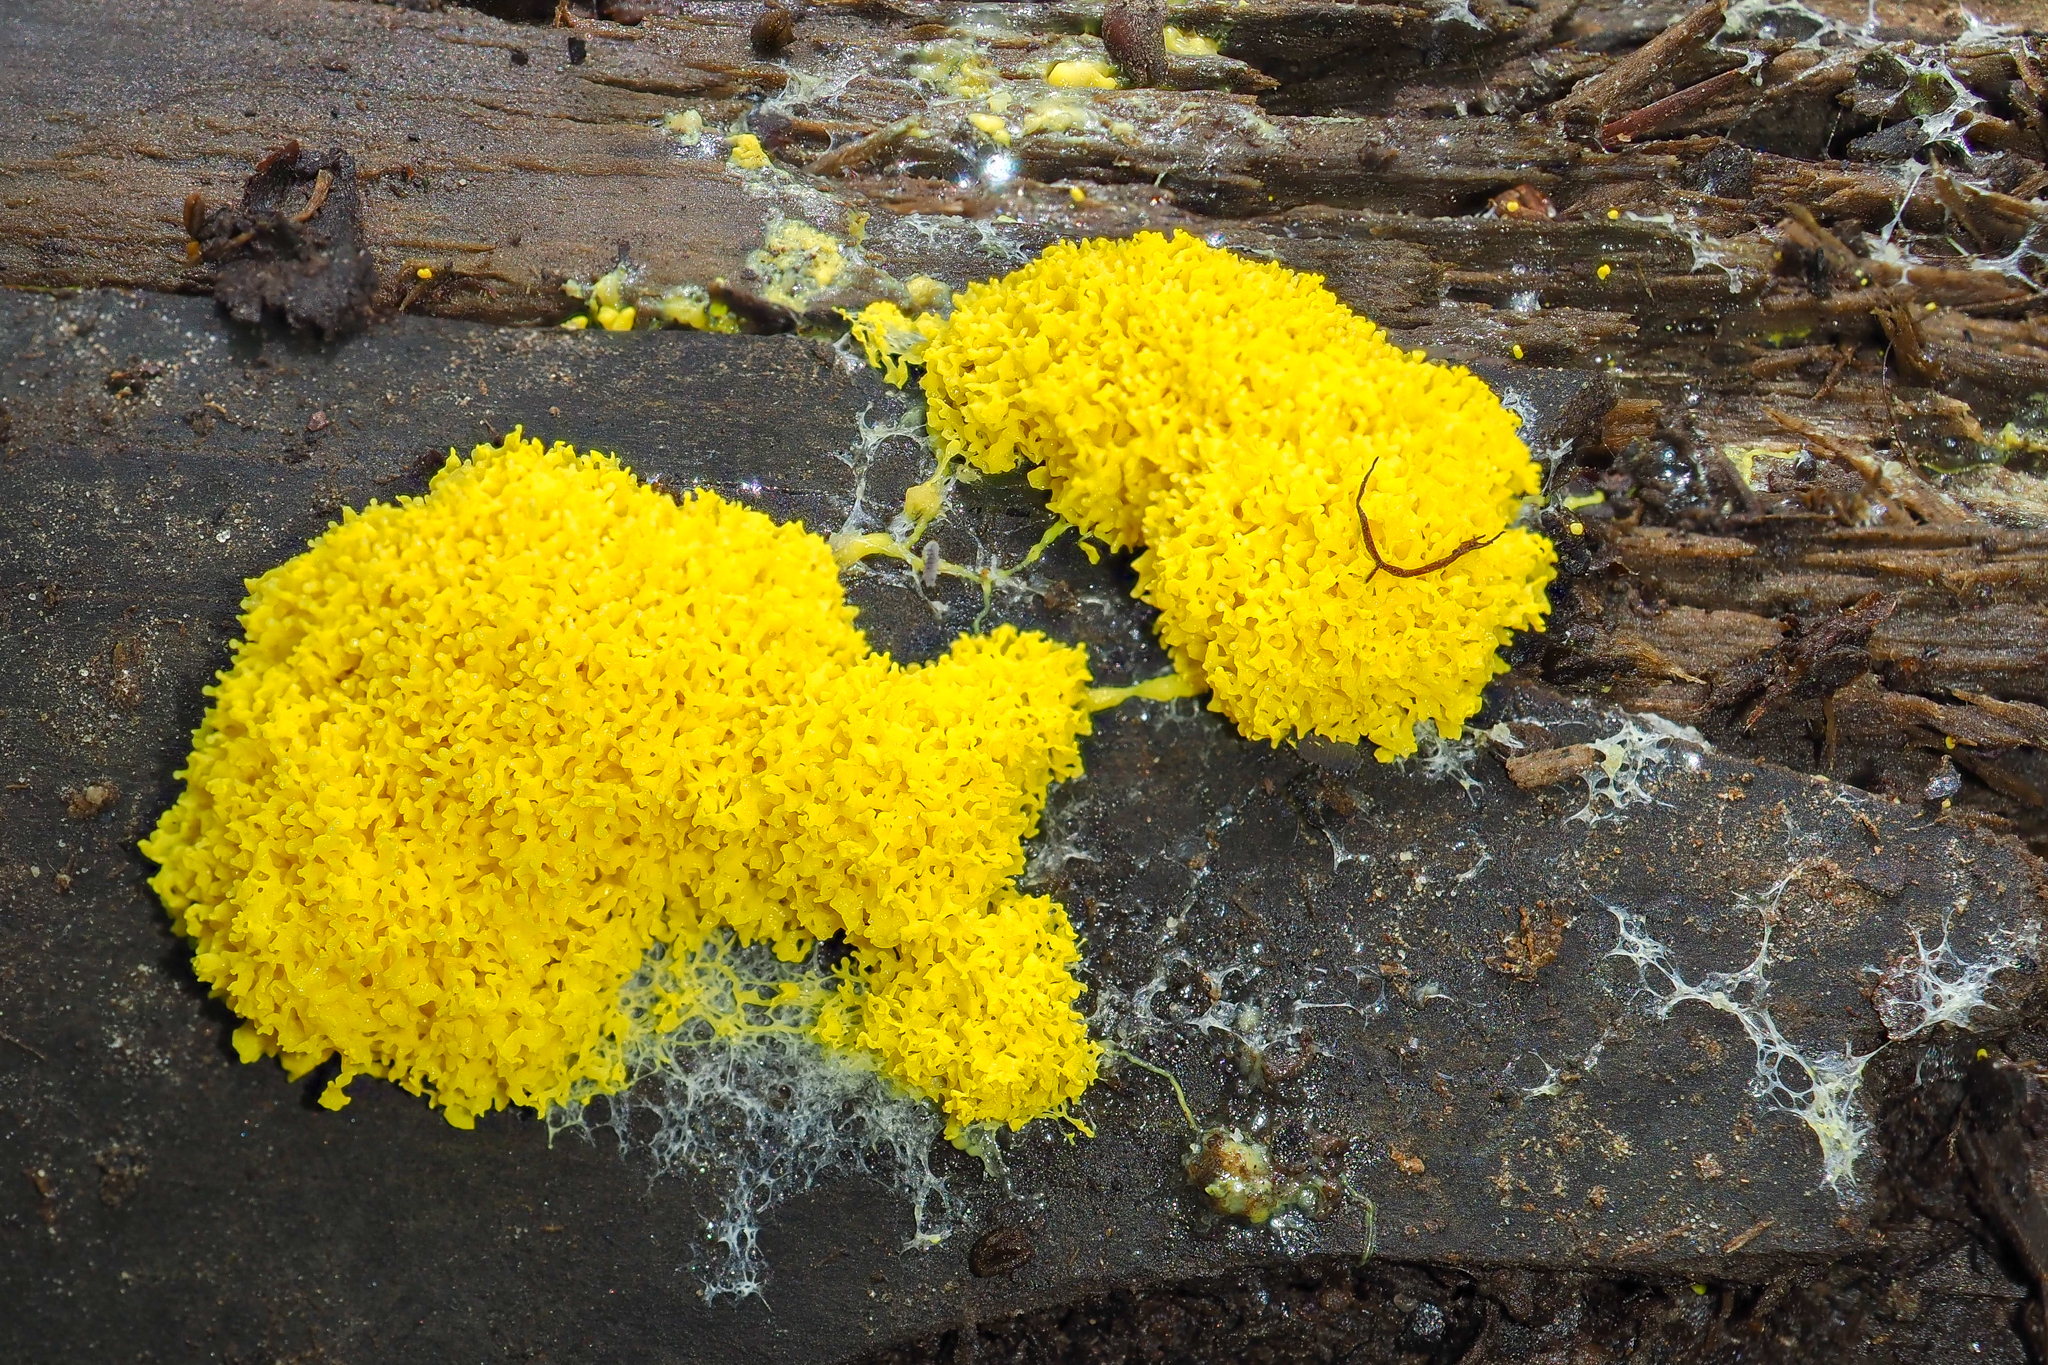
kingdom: Protozoa
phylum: Mycetozoa
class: Myxomycetes
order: Physarales
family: Physaraceae
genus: Fuligo
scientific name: Fuligo septica
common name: Dog vomit slime mold
